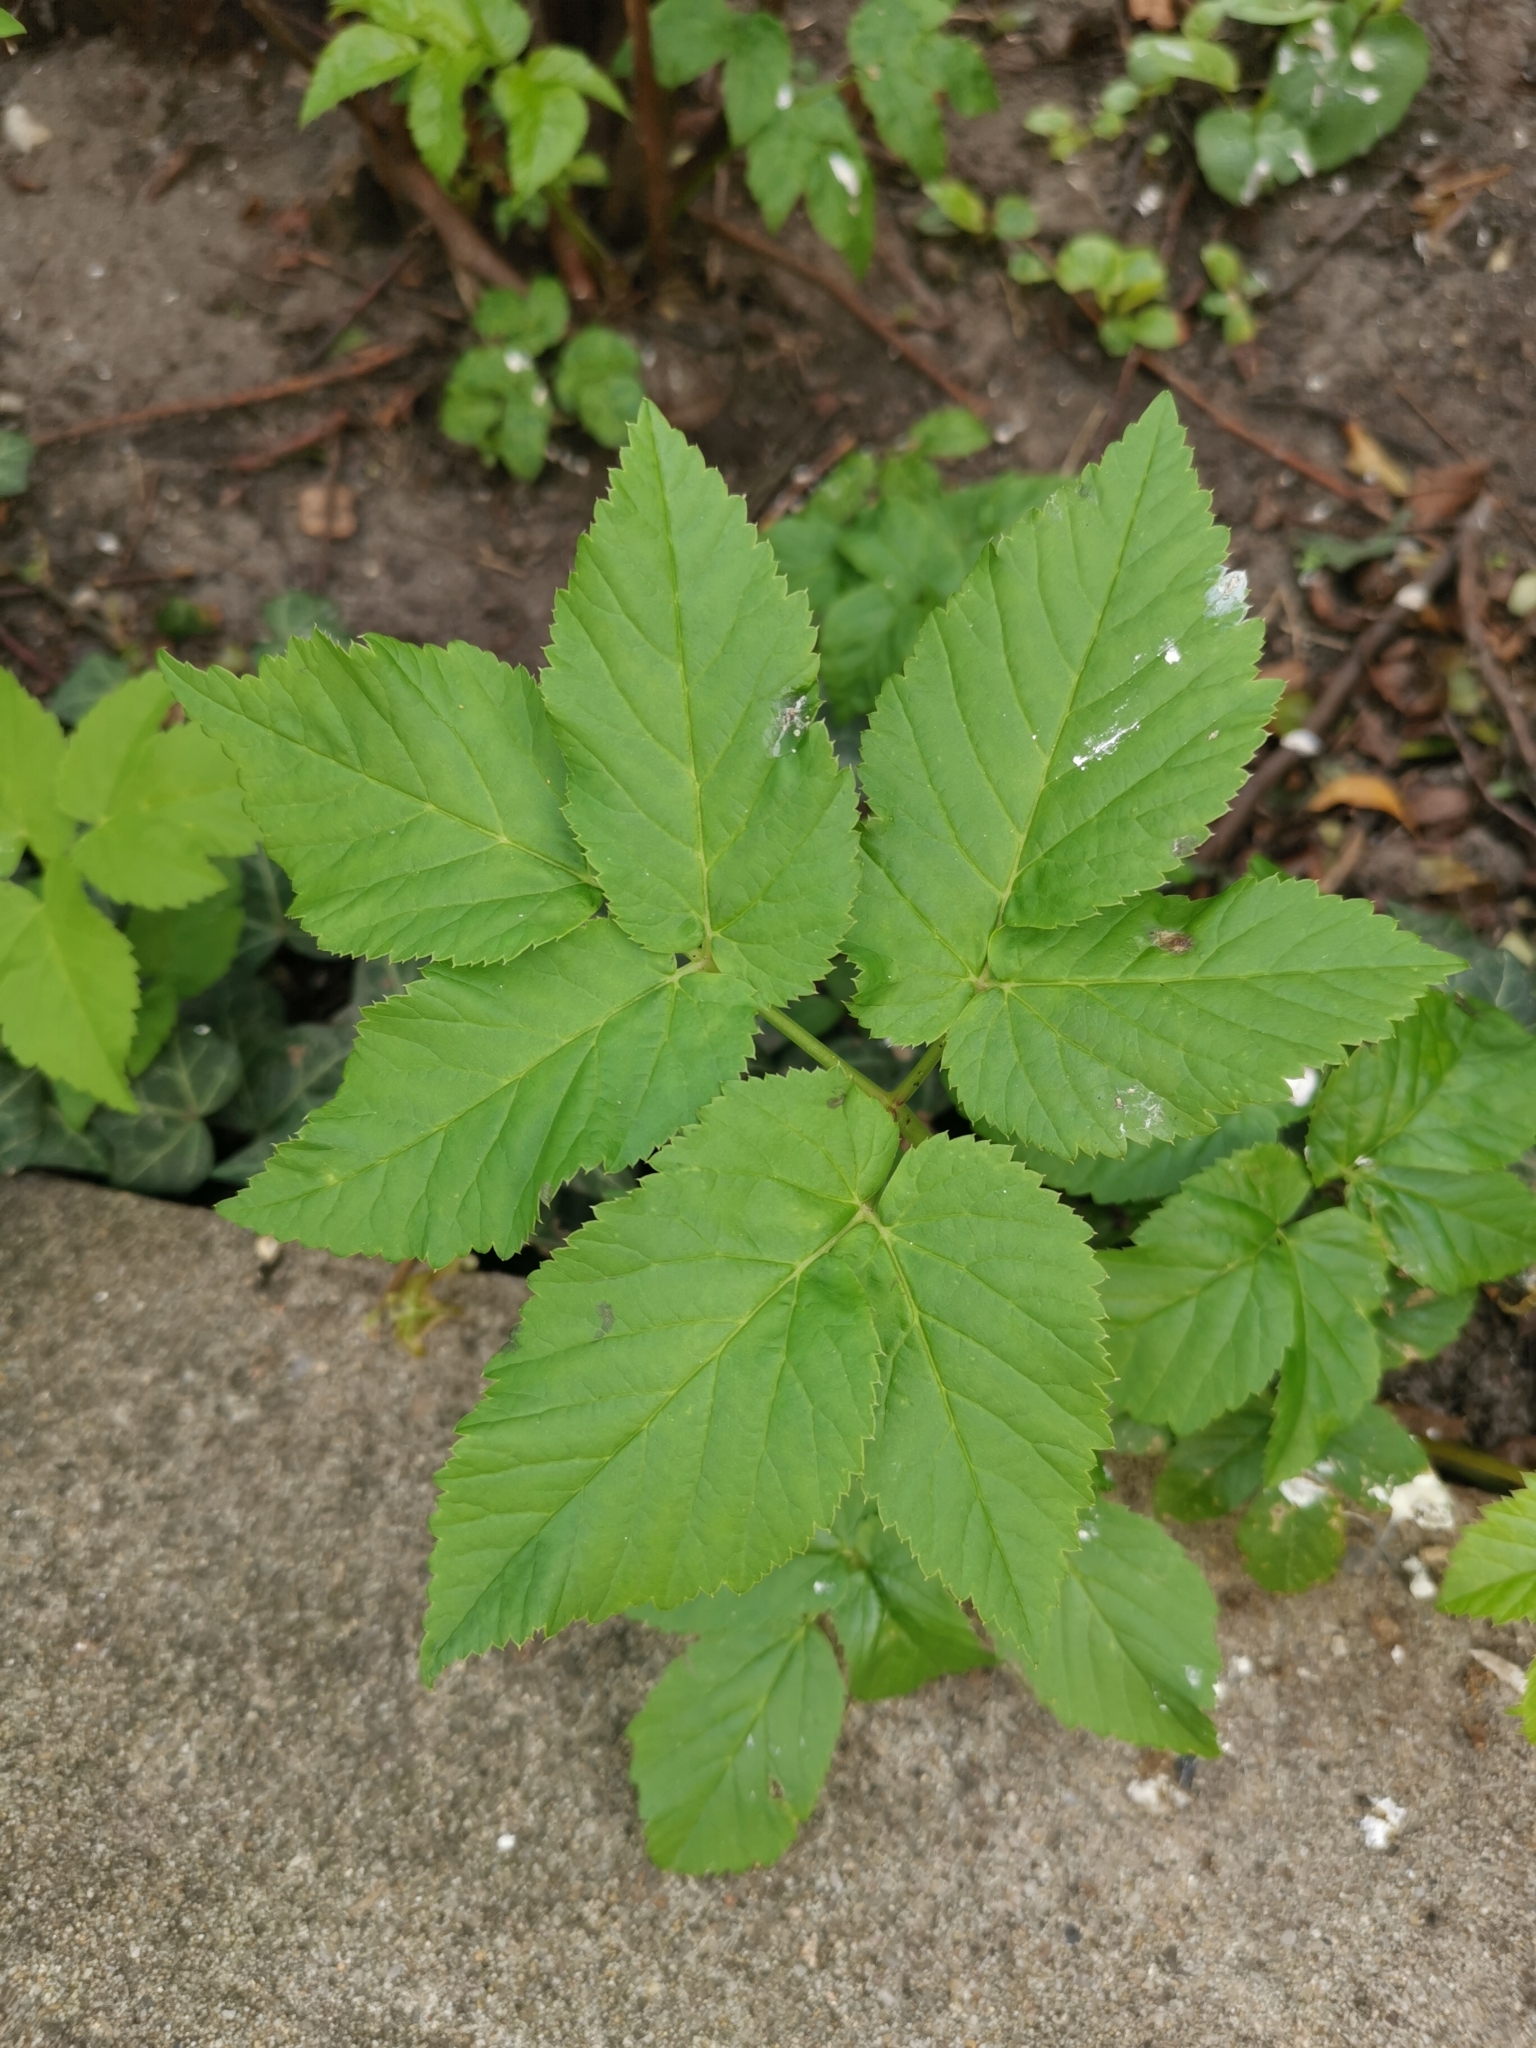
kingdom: Plantae
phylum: Tracheophyta
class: Magnoliopsida
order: Apiales
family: Apiaceae
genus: Aegopodium
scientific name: Aegopodium podagraria
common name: Ground-elder
